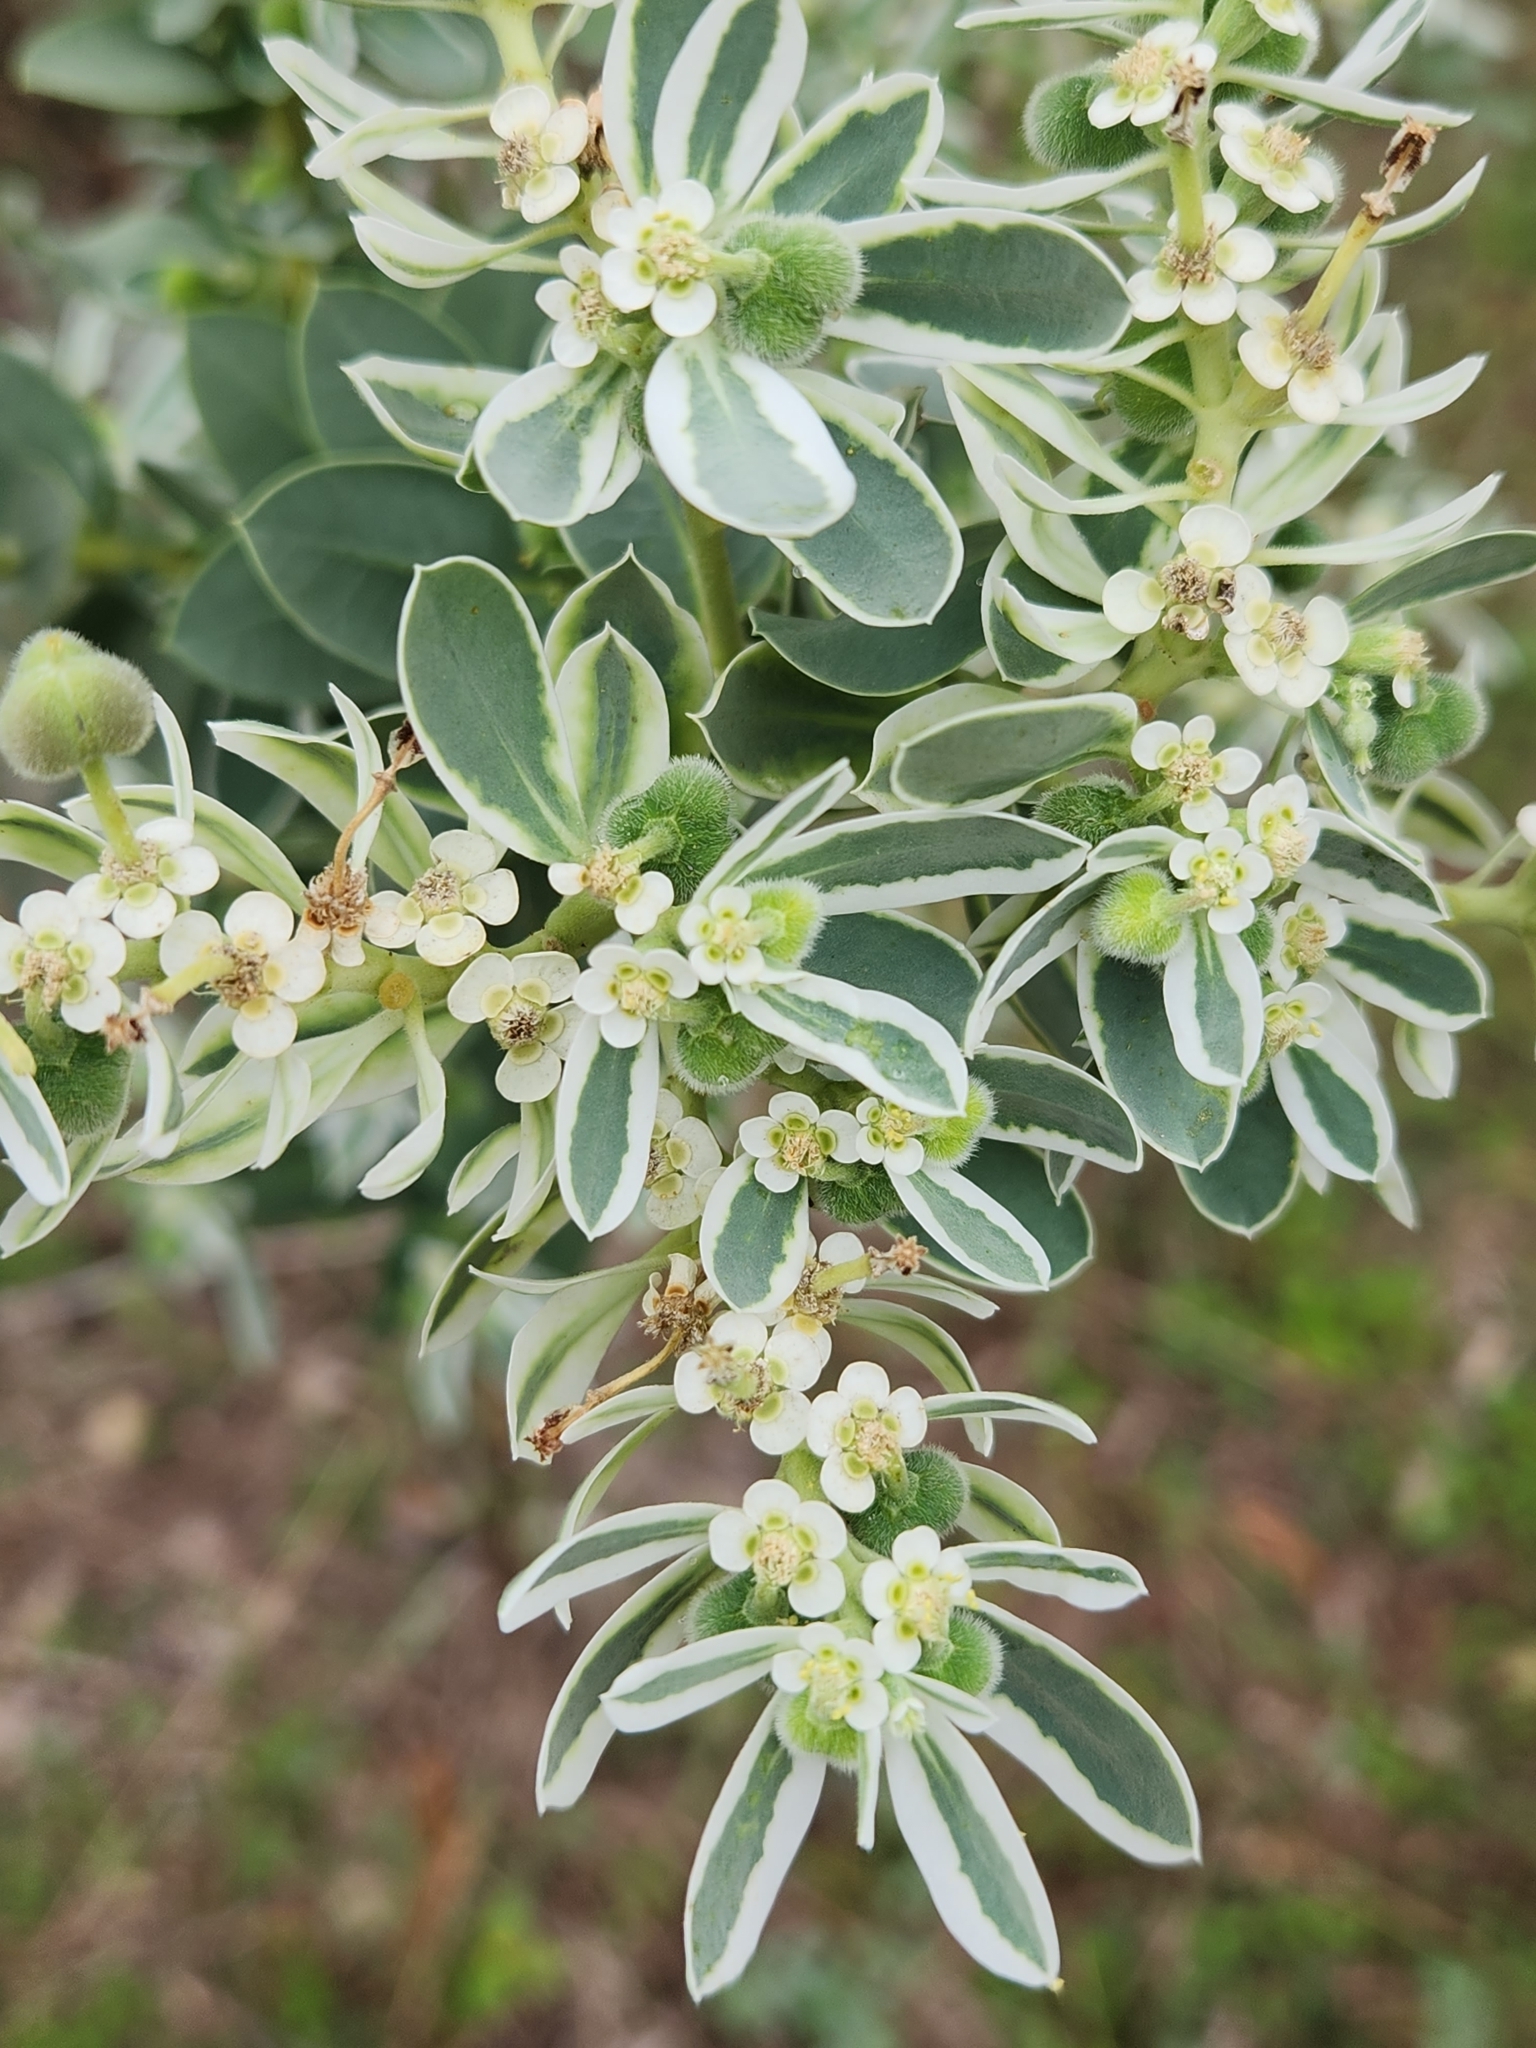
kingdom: Plantae
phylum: Tracheophyta
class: Magnoliopsida
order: Malpighiales
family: Euphorbiaceae
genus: Euphorbia
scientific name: Euphorbia marginata
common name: Ghostweed
